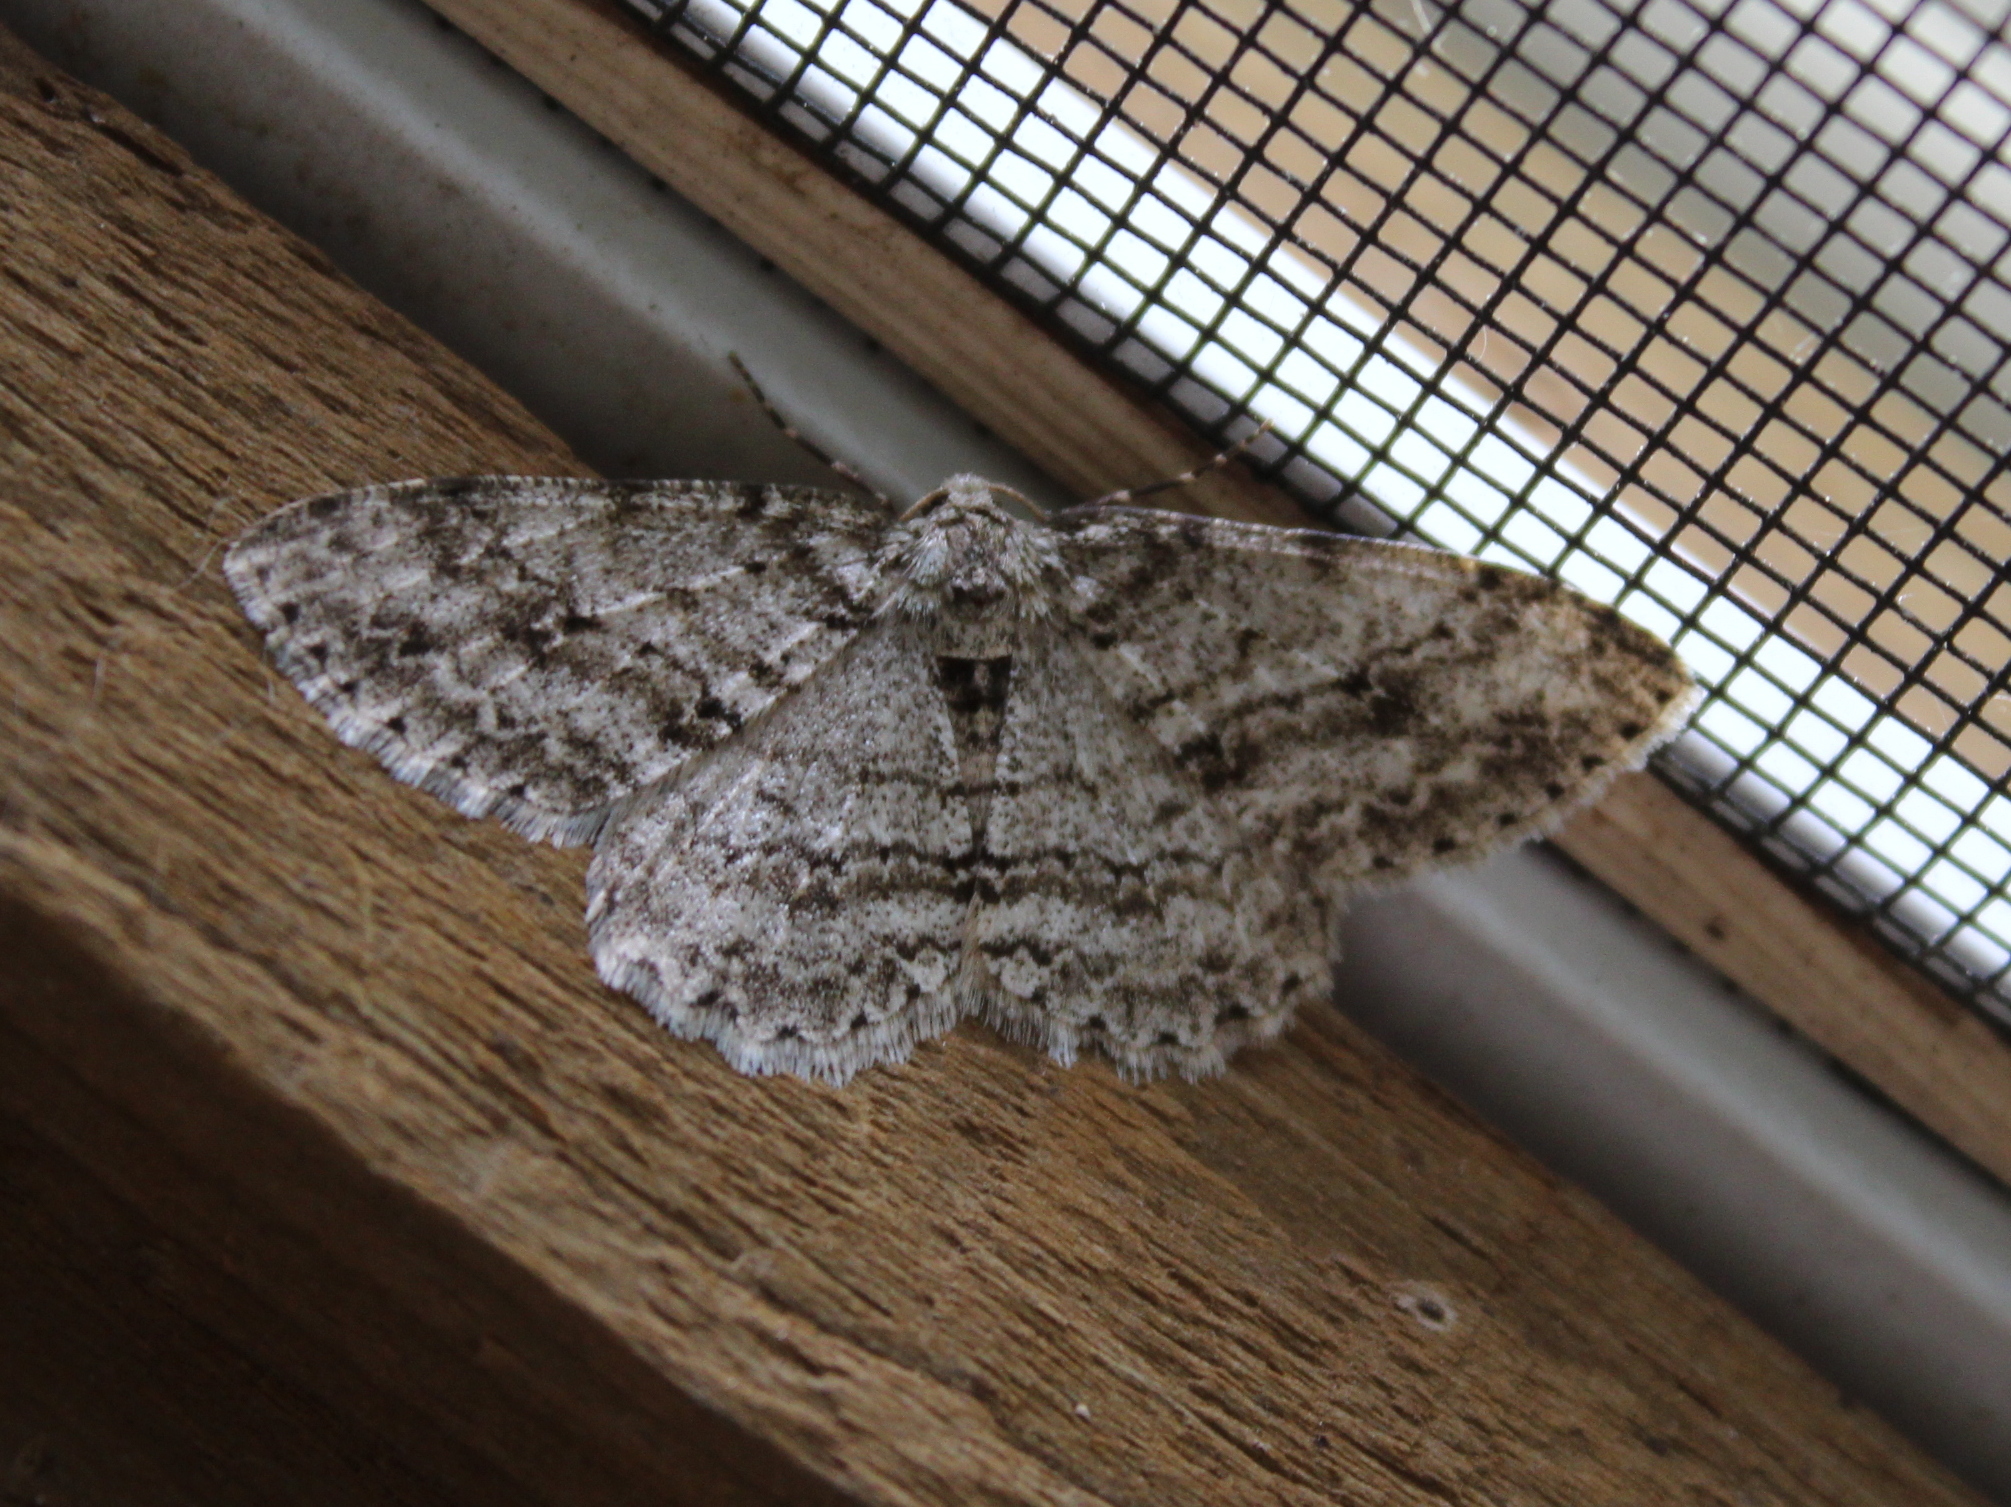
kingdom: Animalia
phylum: Arthropoda
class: Insecta
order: Lepidoptera
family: Geometridae
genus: Ectropis
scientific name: Ectropis crepuscularia
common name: Engrailed
